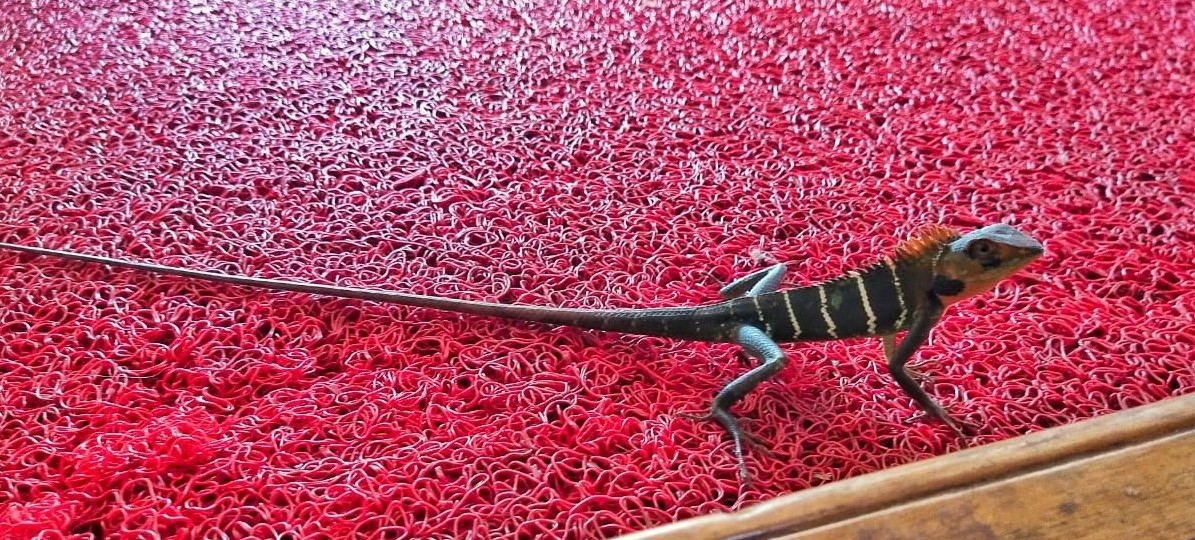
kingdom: Animalia
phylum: Chordata
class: Squamata
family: Agamidae
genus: Calotes
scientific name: Calotes calotes
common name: Common green forest lizard
